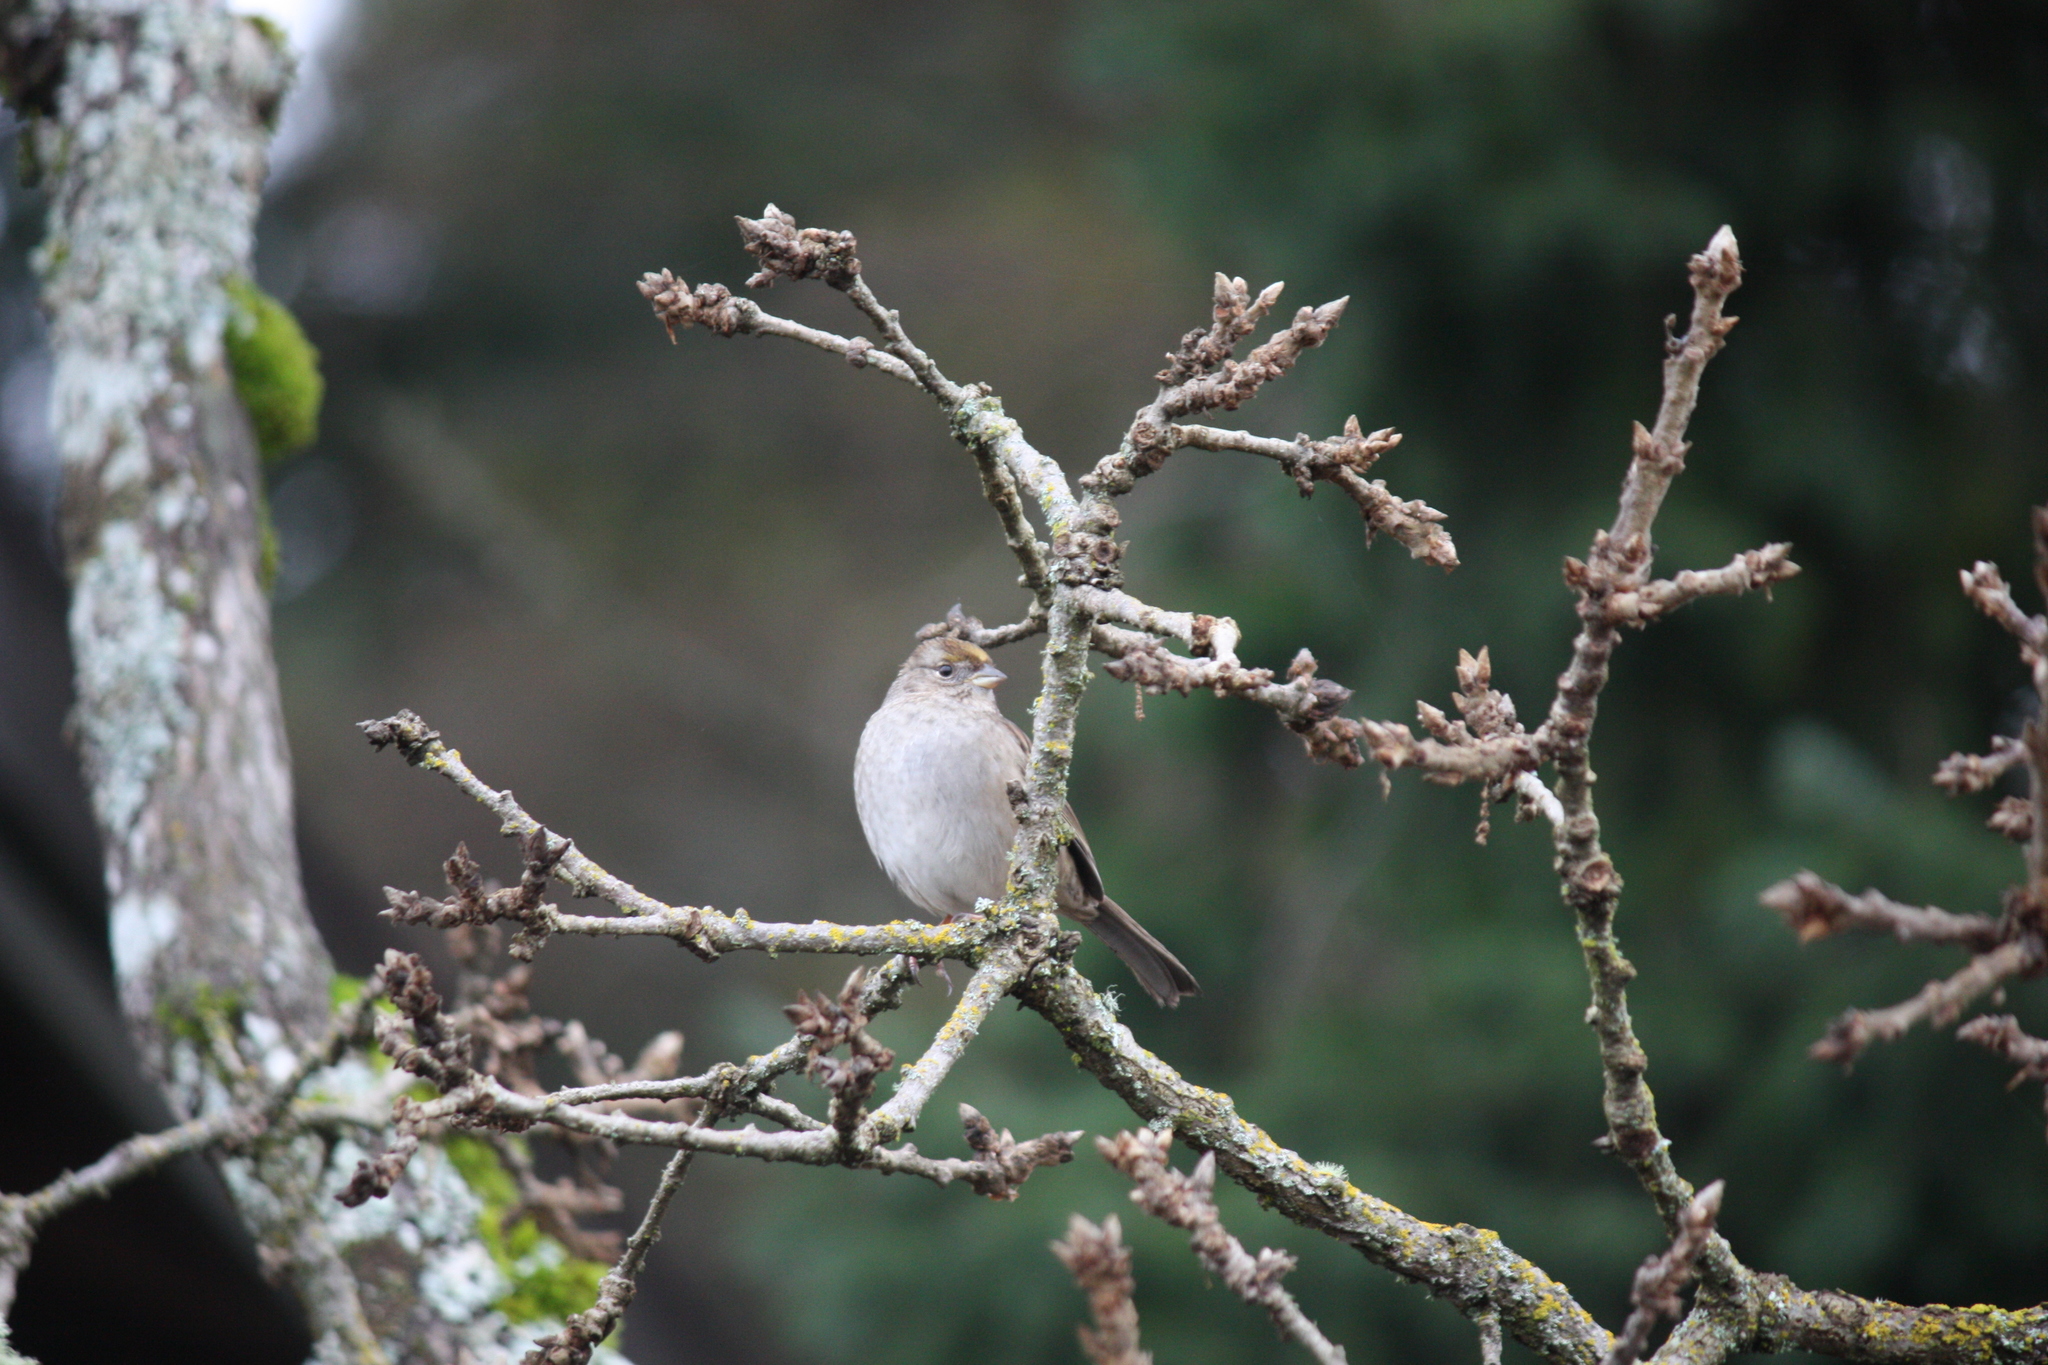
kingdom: Animalia
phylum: Chordata
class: Aves
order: Passeriformes
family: Passerellidae
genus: Zonotrichia
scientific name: Zonotrichia atricapilla
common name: Golden-crowned sparrow
